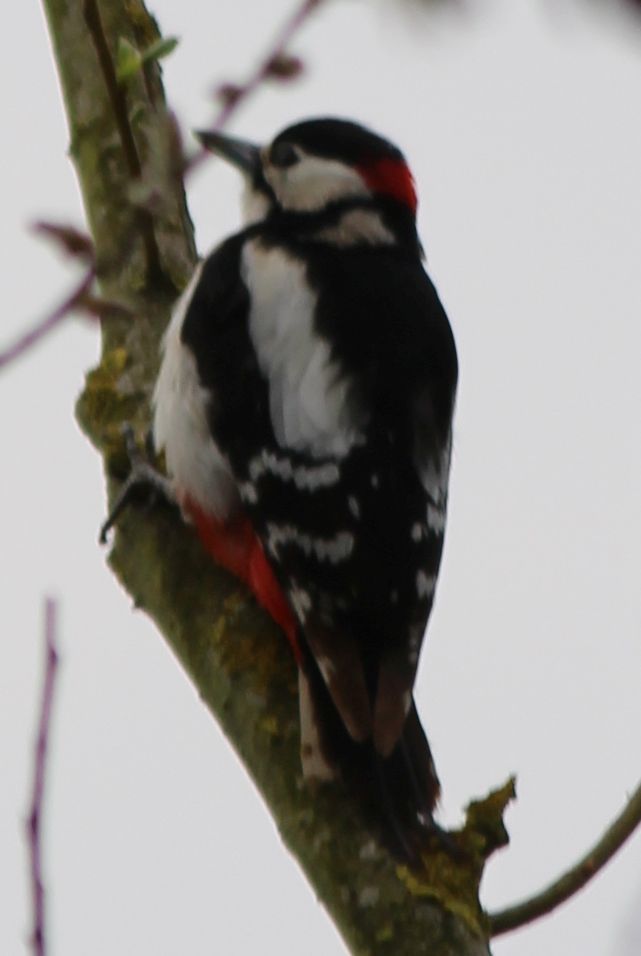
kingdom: Animalia
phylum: Chordata
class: Aves
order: Piciformes
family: Picidae
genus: Dendrocopos
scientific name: Dendrocopos major
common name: Great spotted woodpecker
